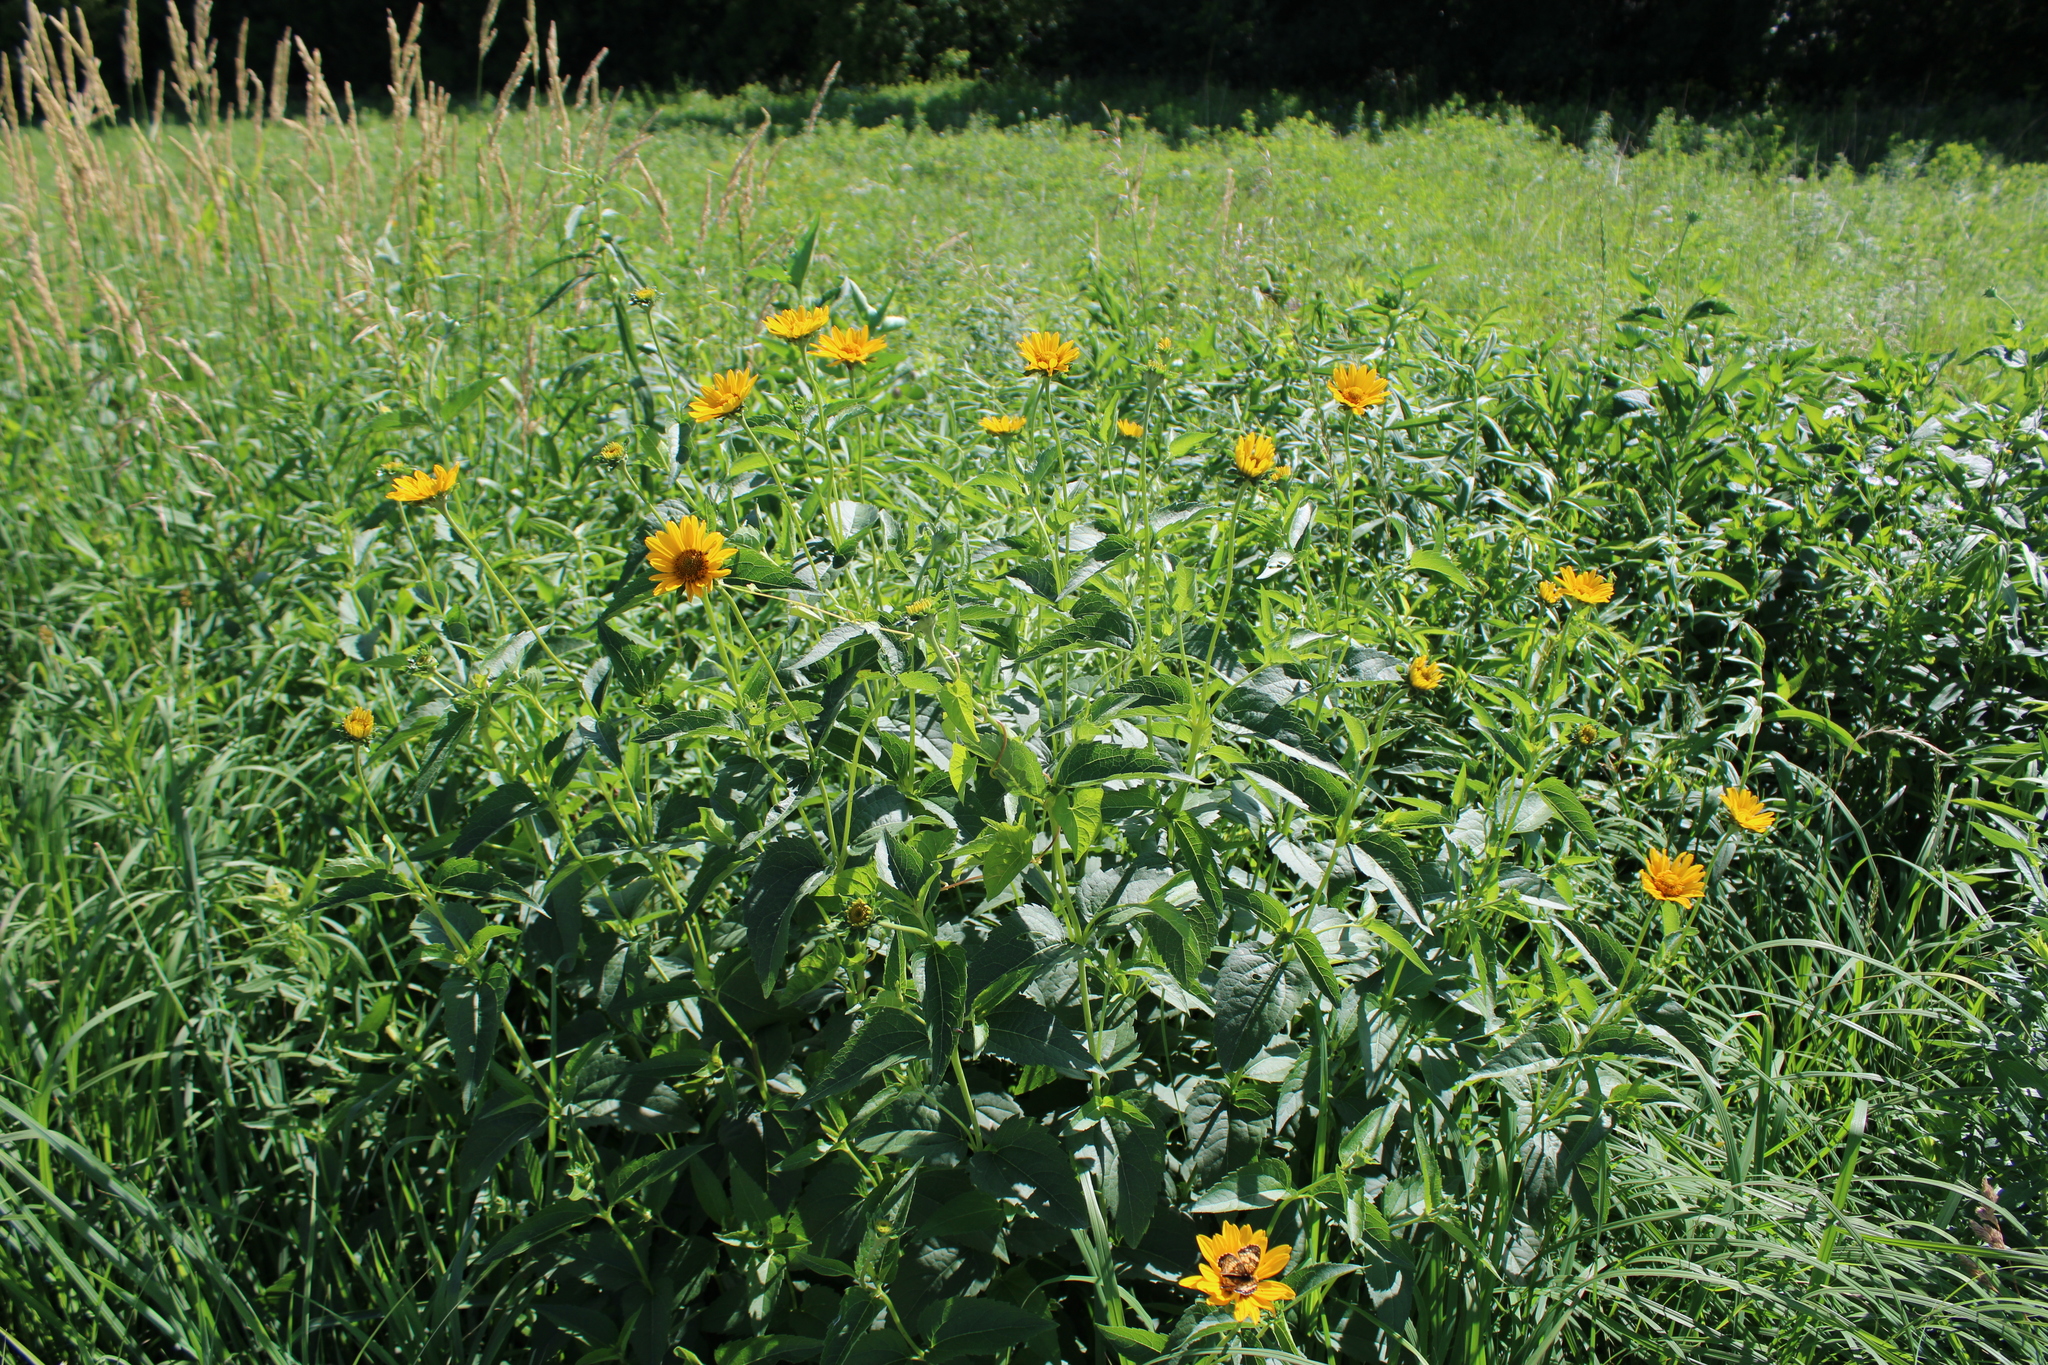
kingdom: Plantae
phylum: Tracheophyta
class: Magnoliopsida
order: Asterales
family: Asteraceae
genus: Heliopsis
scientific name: Heliopsis helianthoides
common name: False sunflower
